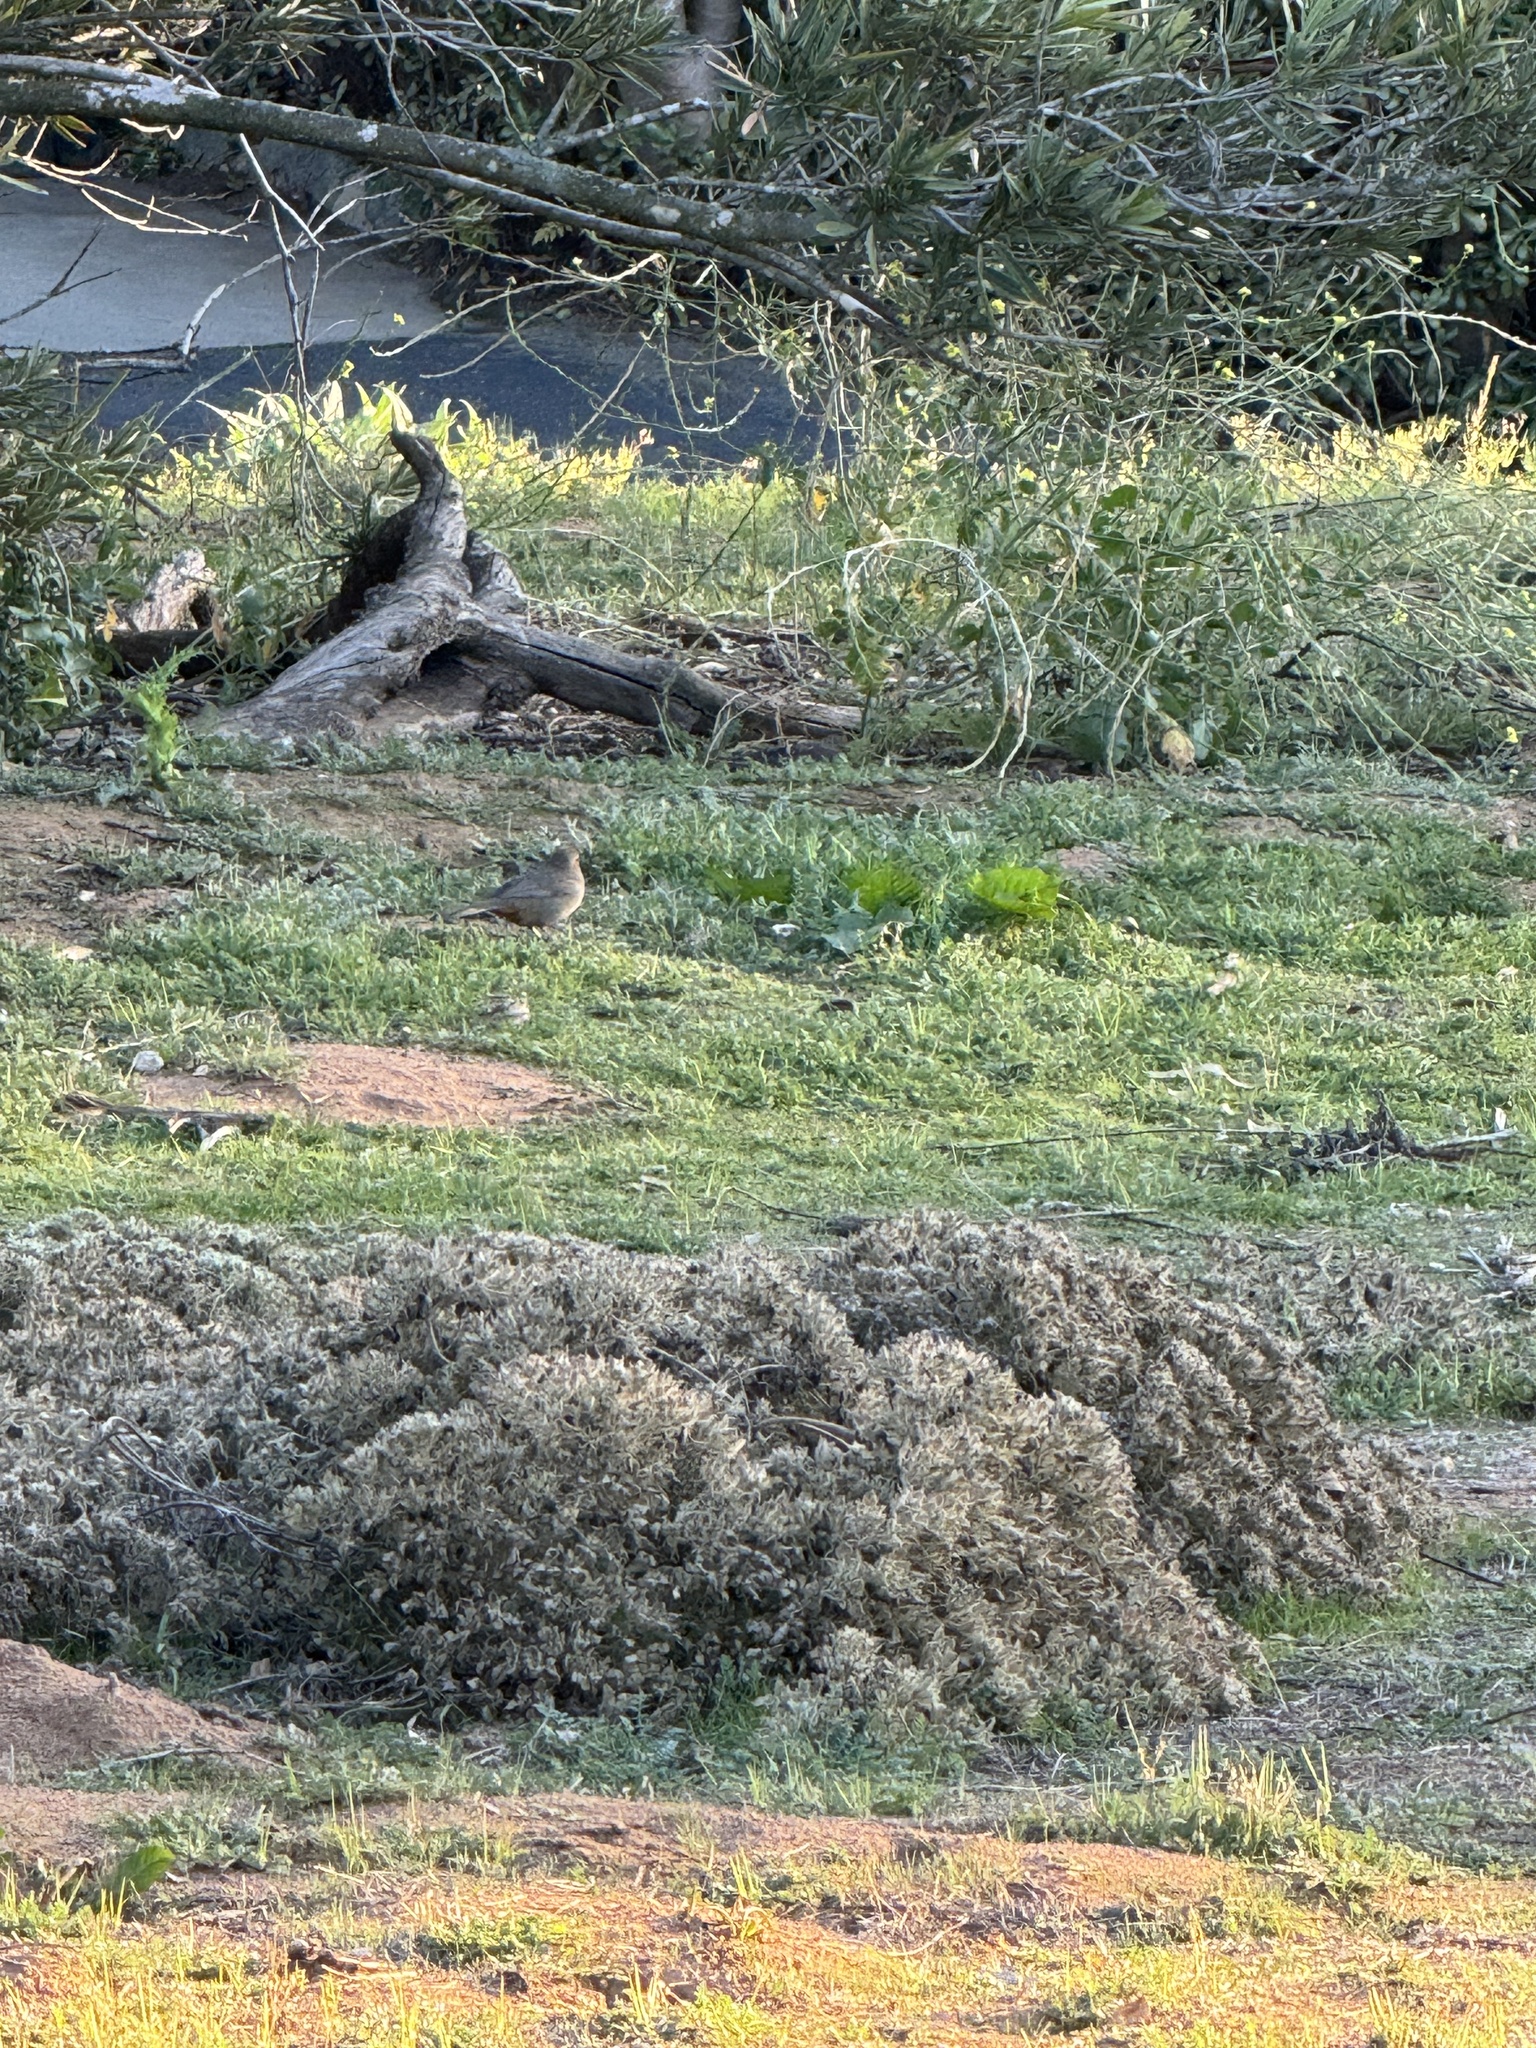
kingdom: Animalia
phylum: Chordata
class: Aves
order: Passeriformes
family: Passerellidae
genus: Melozone
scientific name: Melozone crissalis
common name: California towhee
